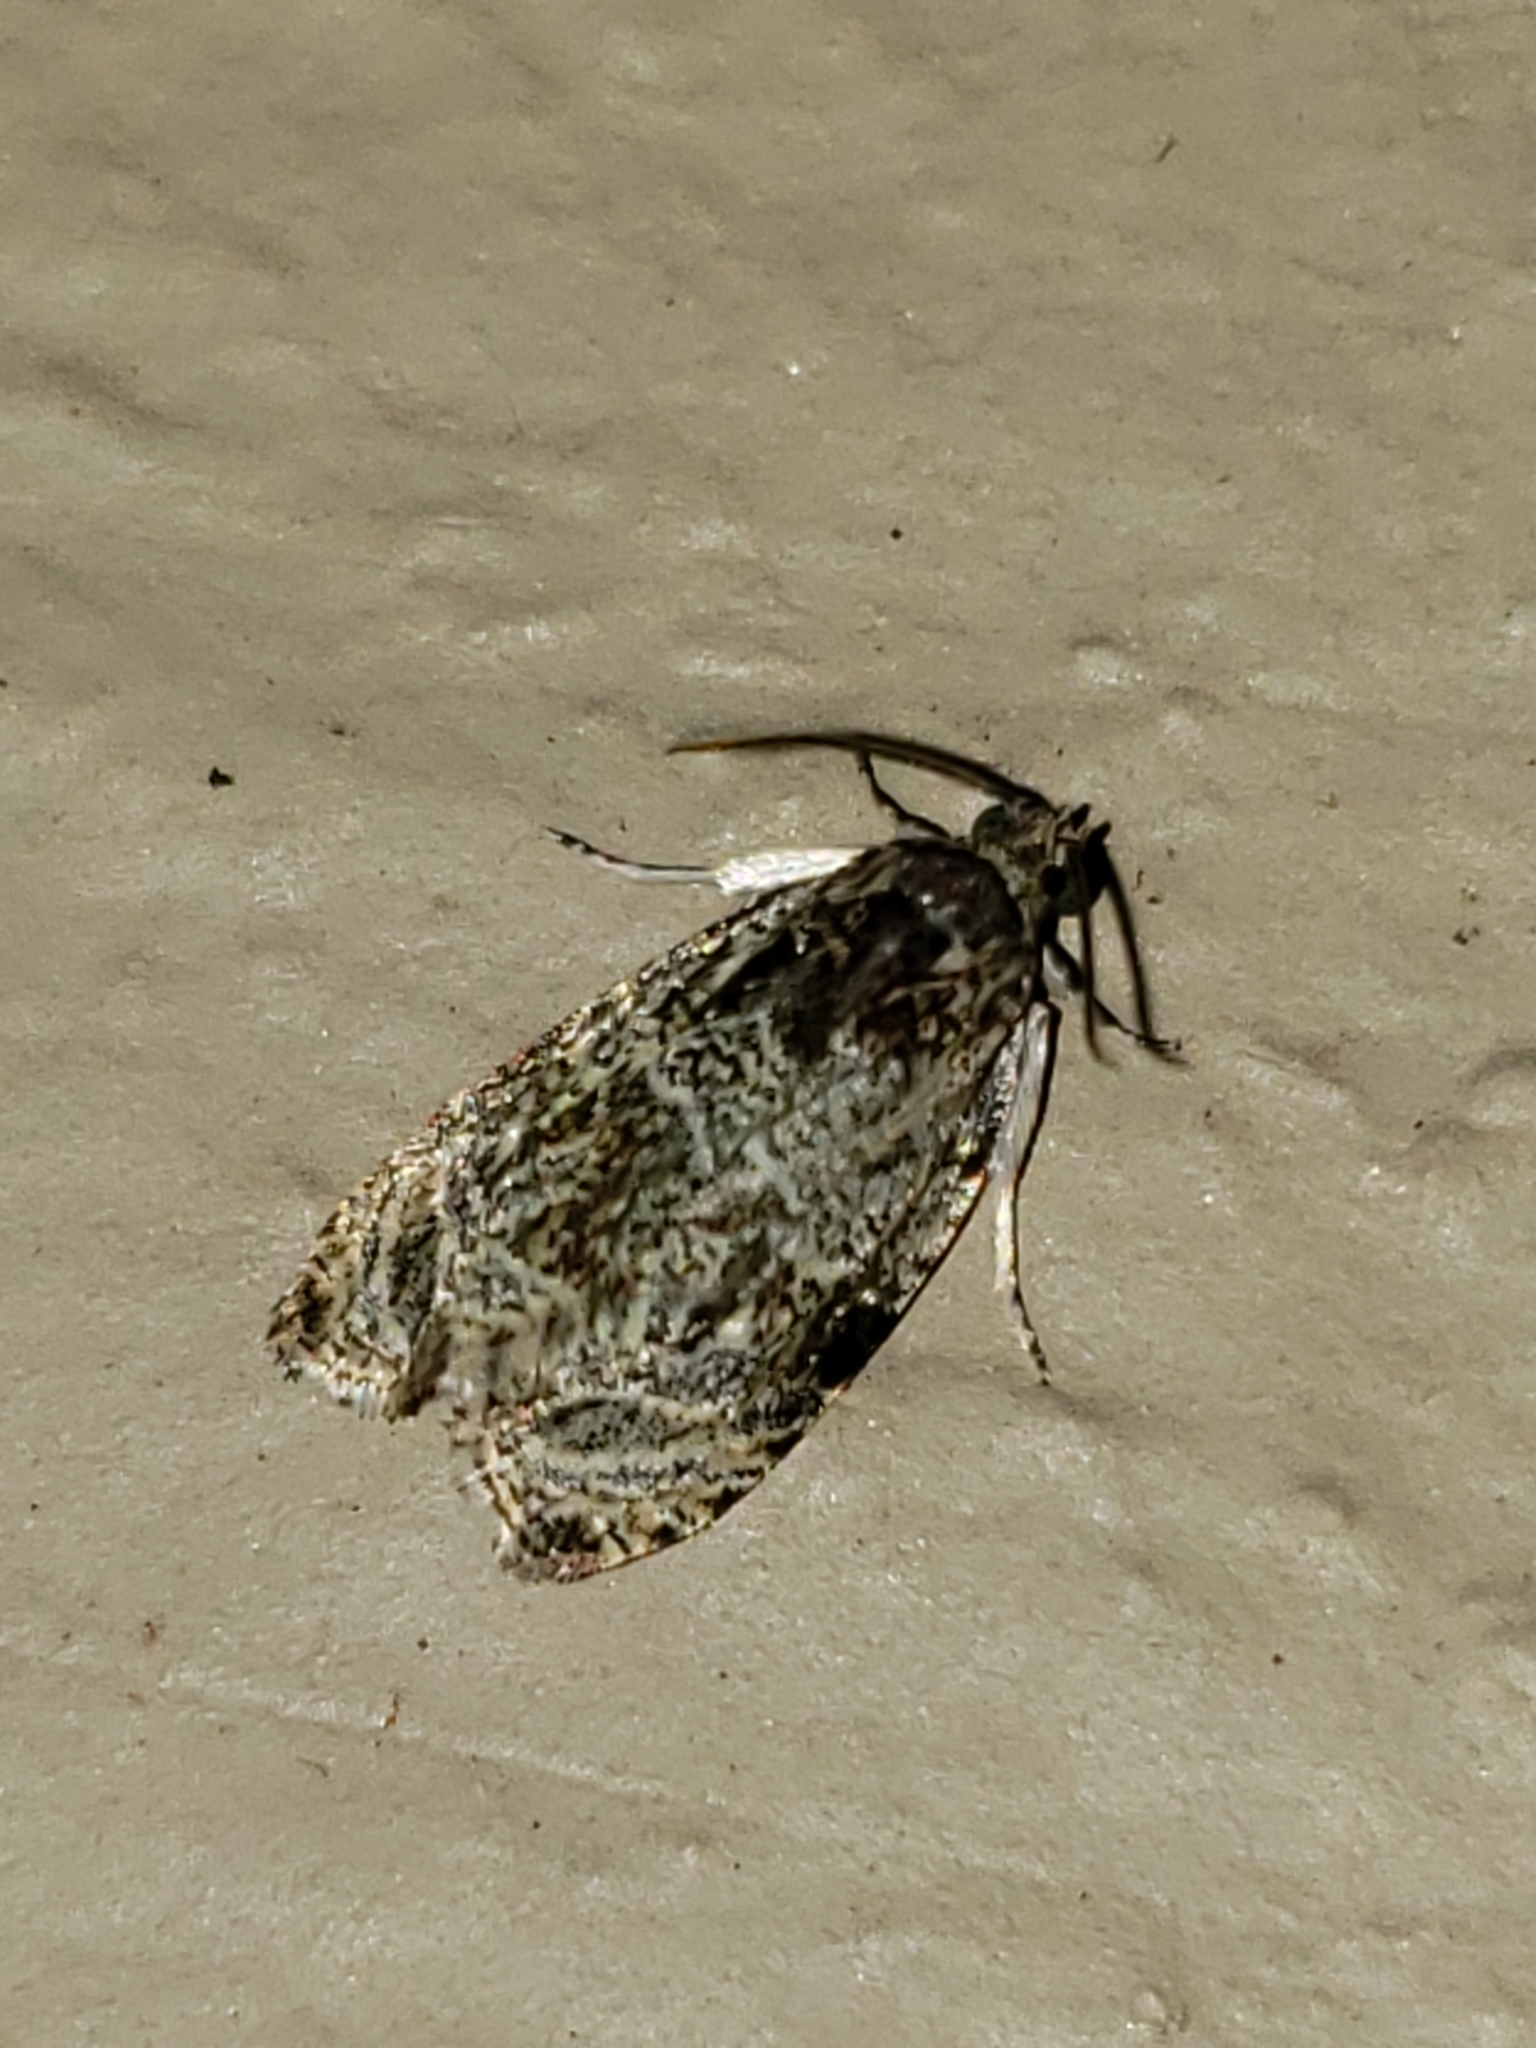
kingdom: Animalia
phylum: Arthropoda
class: Insecta
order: Lepidoptera
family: Tortricidae
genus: Olethreutes
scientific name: Olethreutes concinnana
